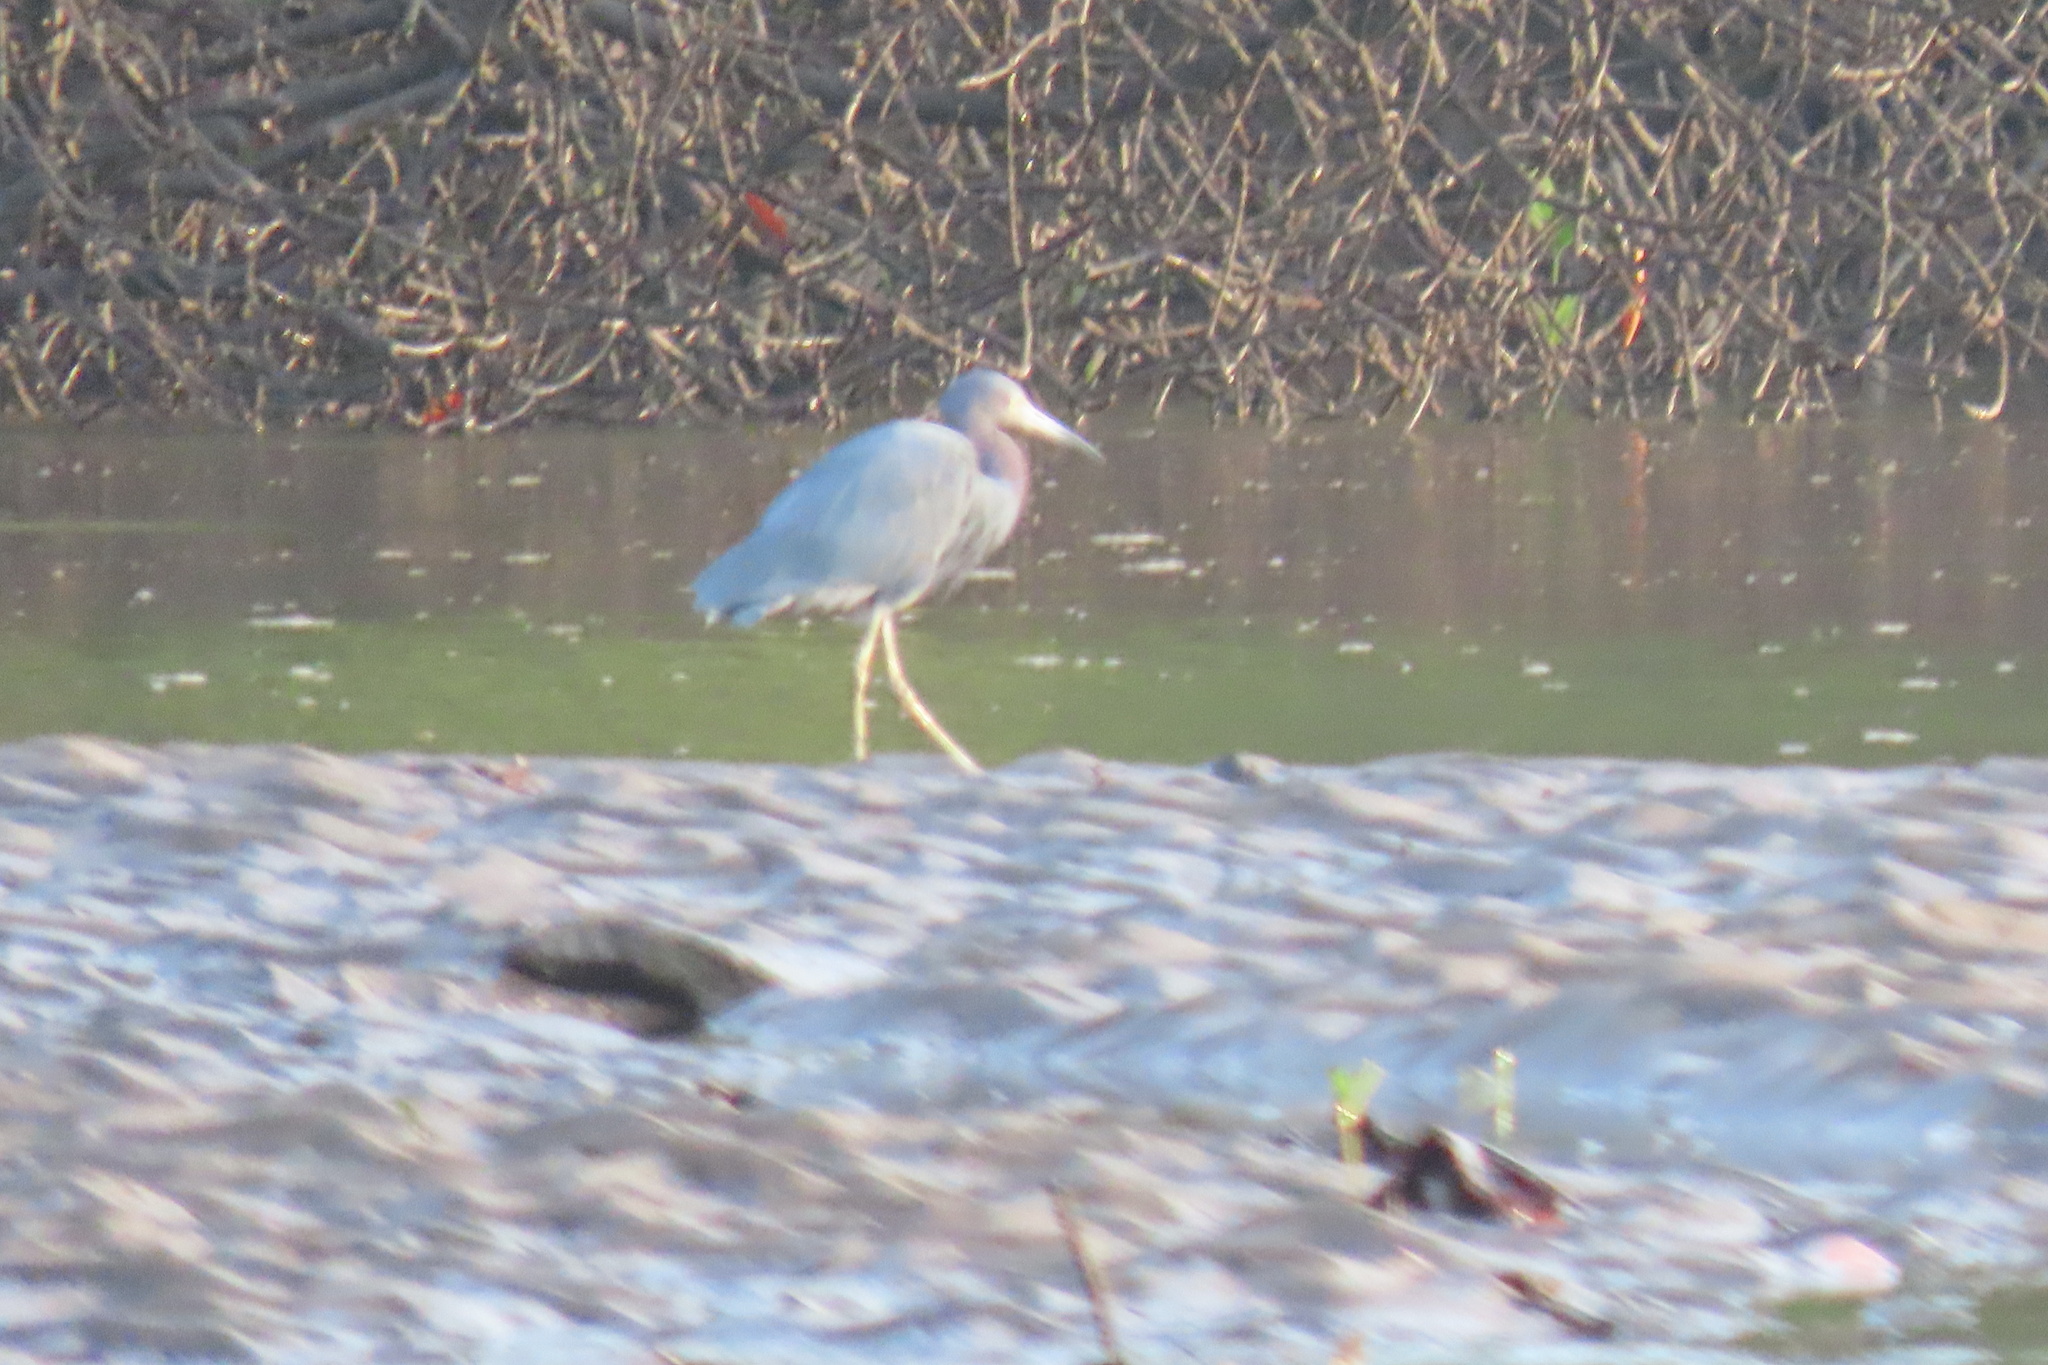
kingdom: Animalia
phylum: Chordata
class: Aves
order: Pelecaniformes
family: Ardeidae
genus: Egretta
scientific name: Egretta caerulea
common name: Little blue heron
